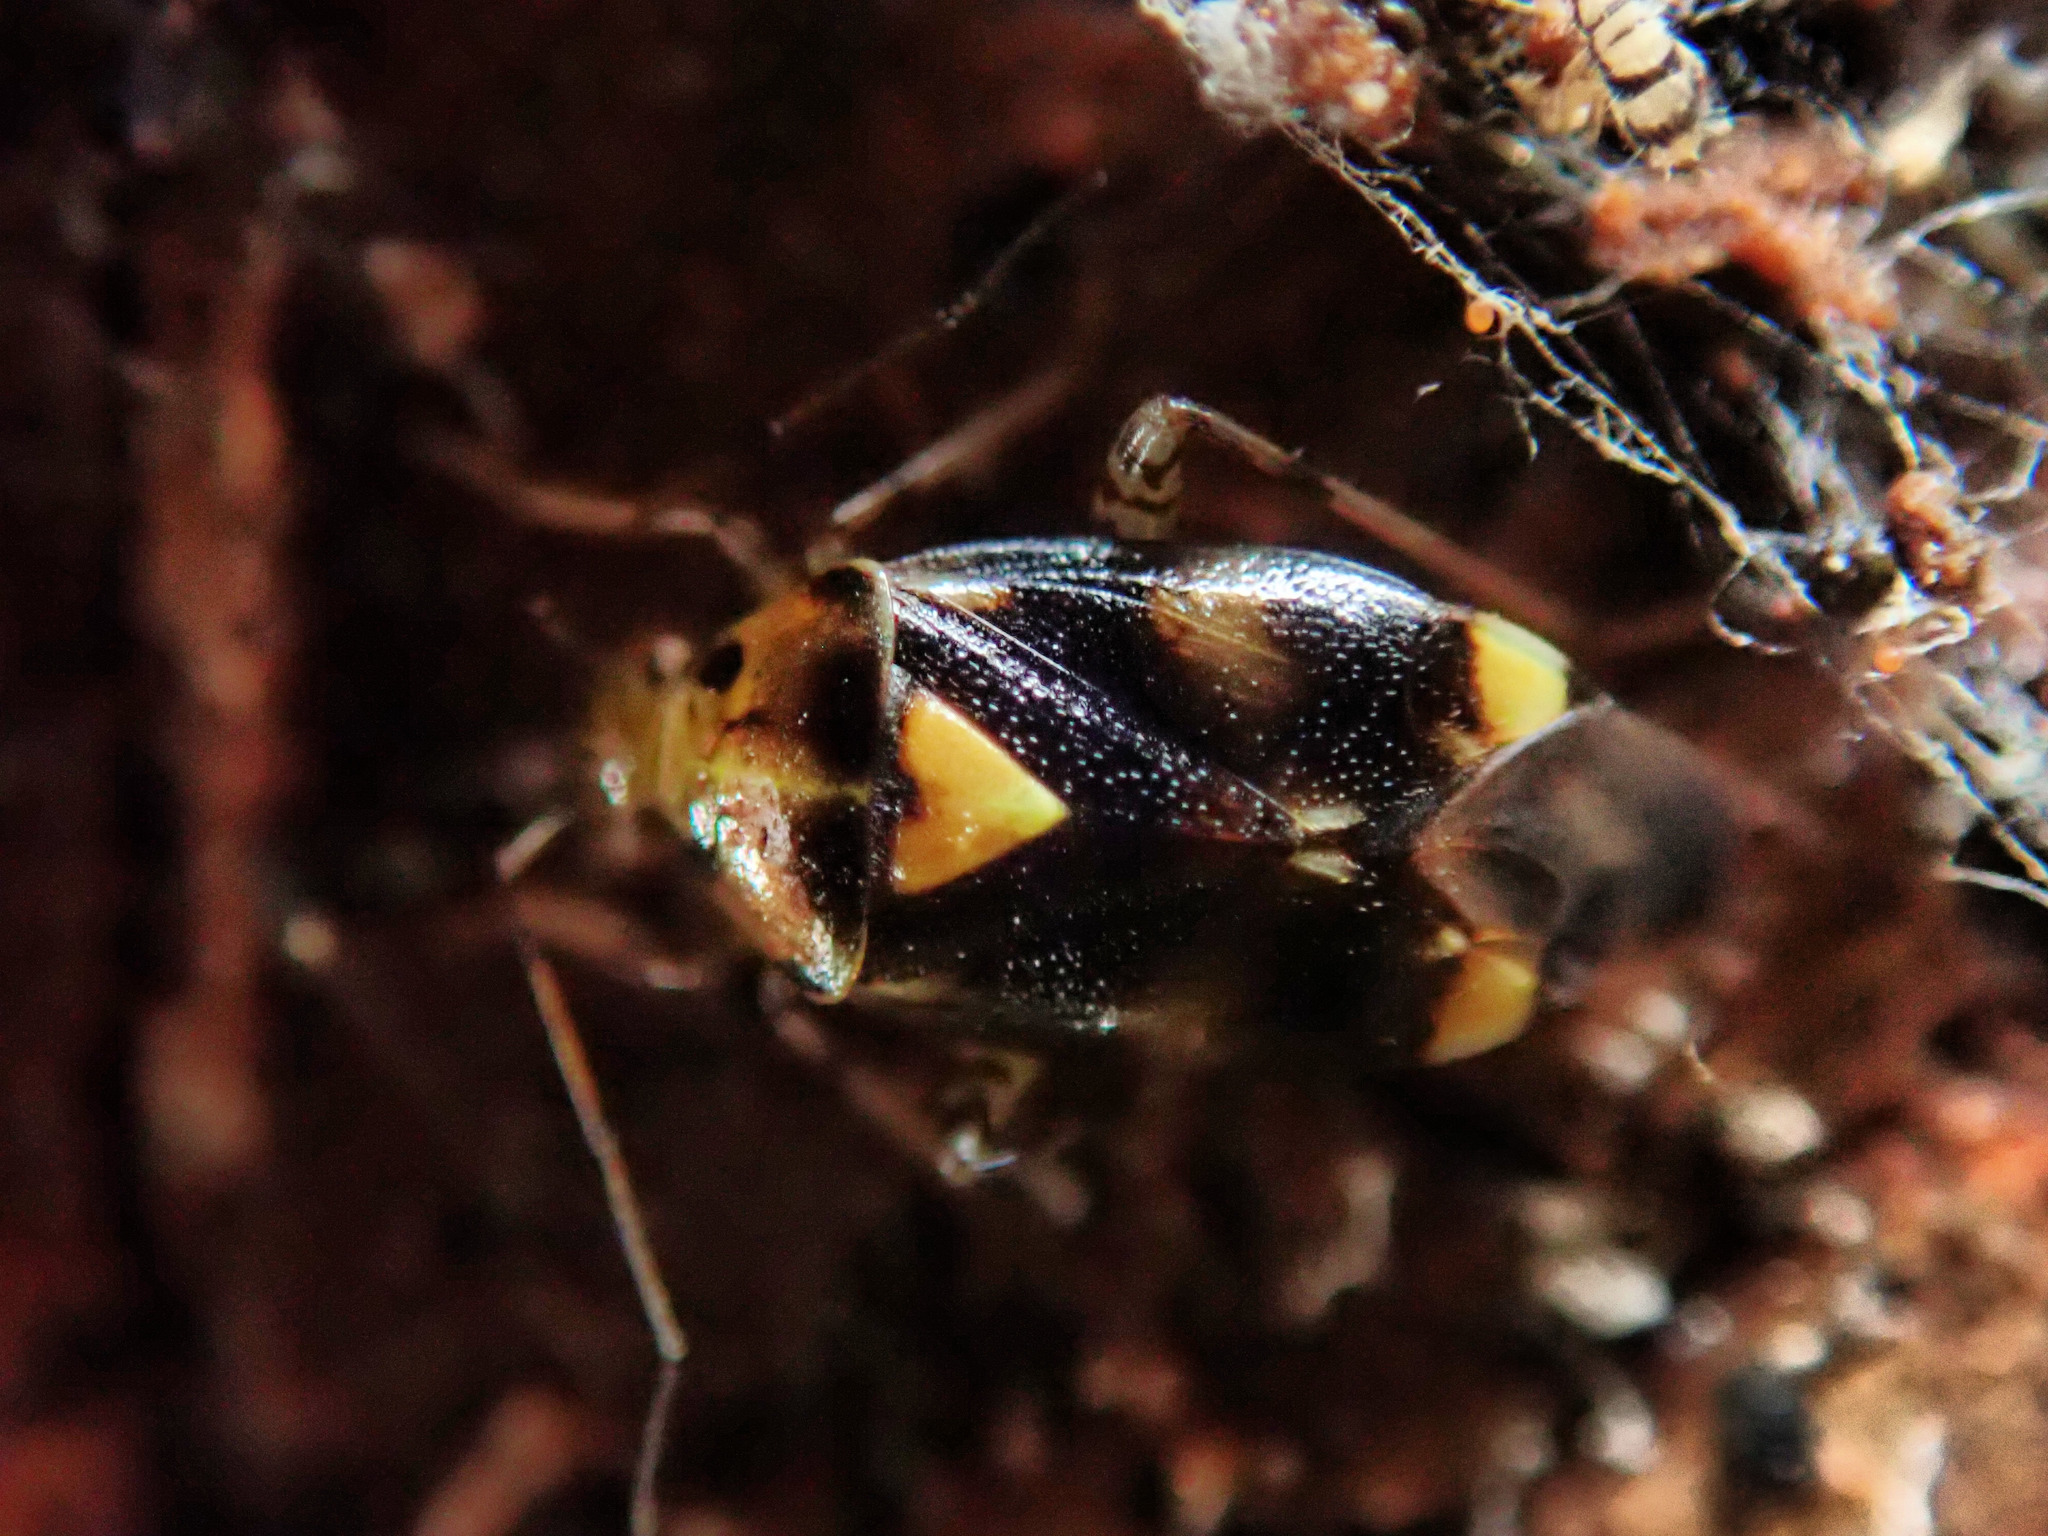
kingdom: Animalia
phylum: Arthropoda
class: Insecta
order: Hemiptera
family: Miridae
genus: Liocoris
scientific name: Liocoris tripustulatus
